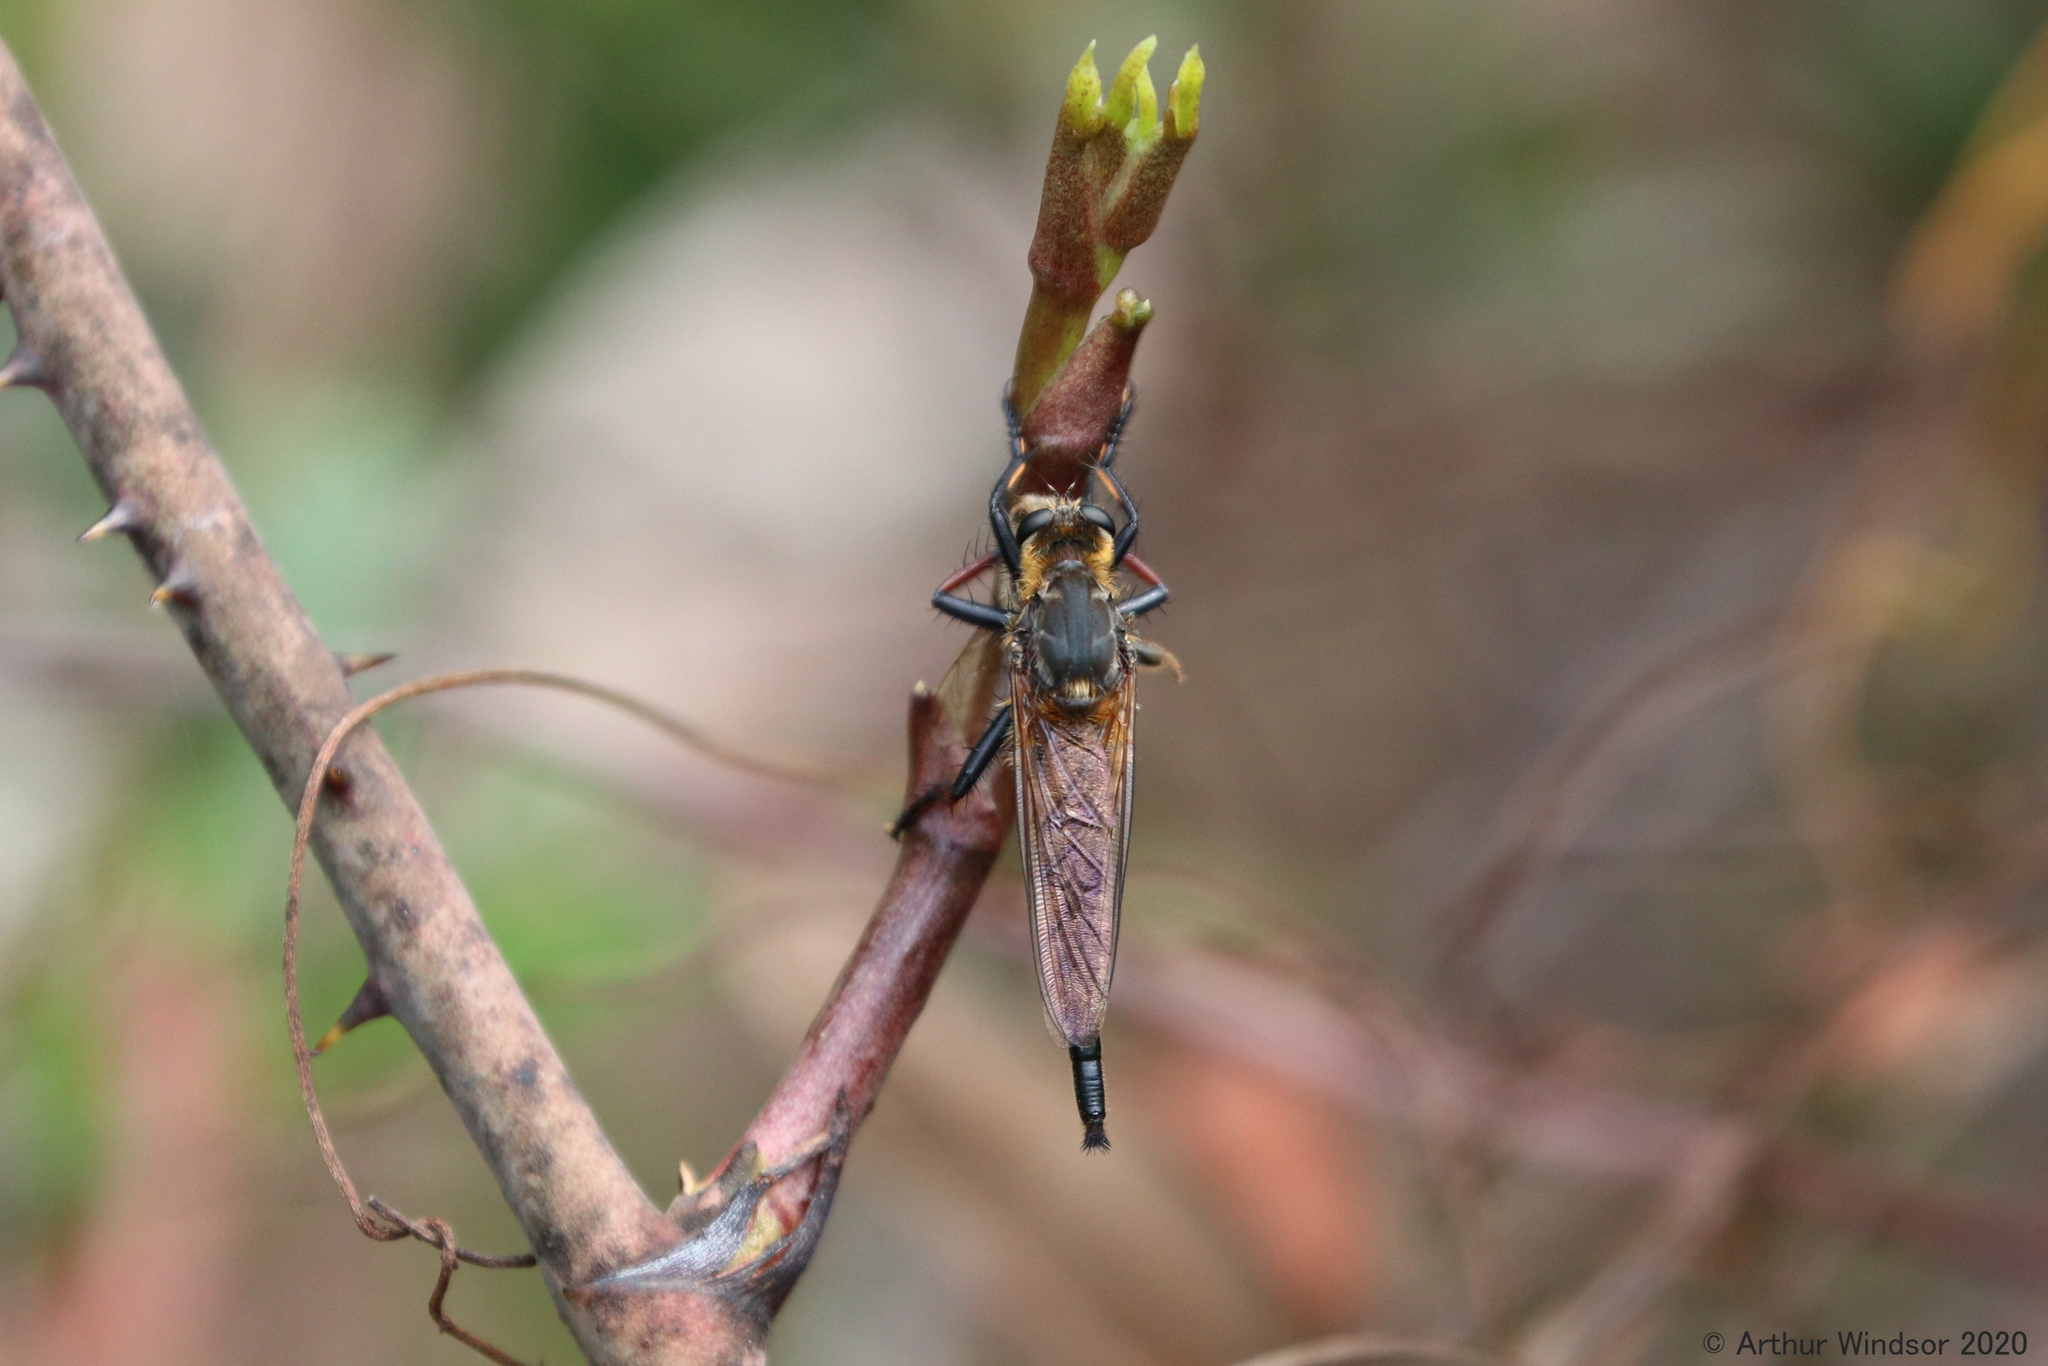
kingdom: Animalia
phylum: Arthropoda
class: Insecta
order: Diptera
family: Asilidae
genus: Proctacanthus
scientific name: Proctacanthus fulviventris
